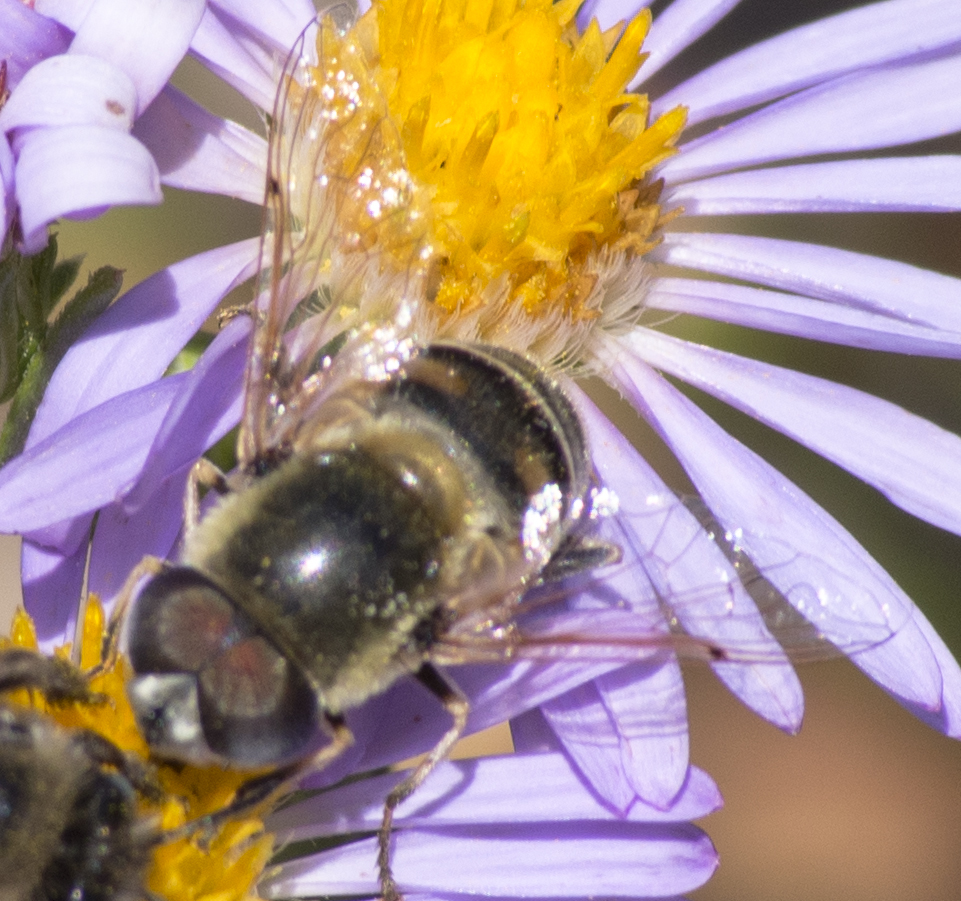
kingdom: Animalia
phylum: Arthropoda
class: Insecta
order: Diptera
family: Syrphidae
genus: Eristalis
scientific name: Eristalis stipator
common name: Yellow-shouldered drone fly
